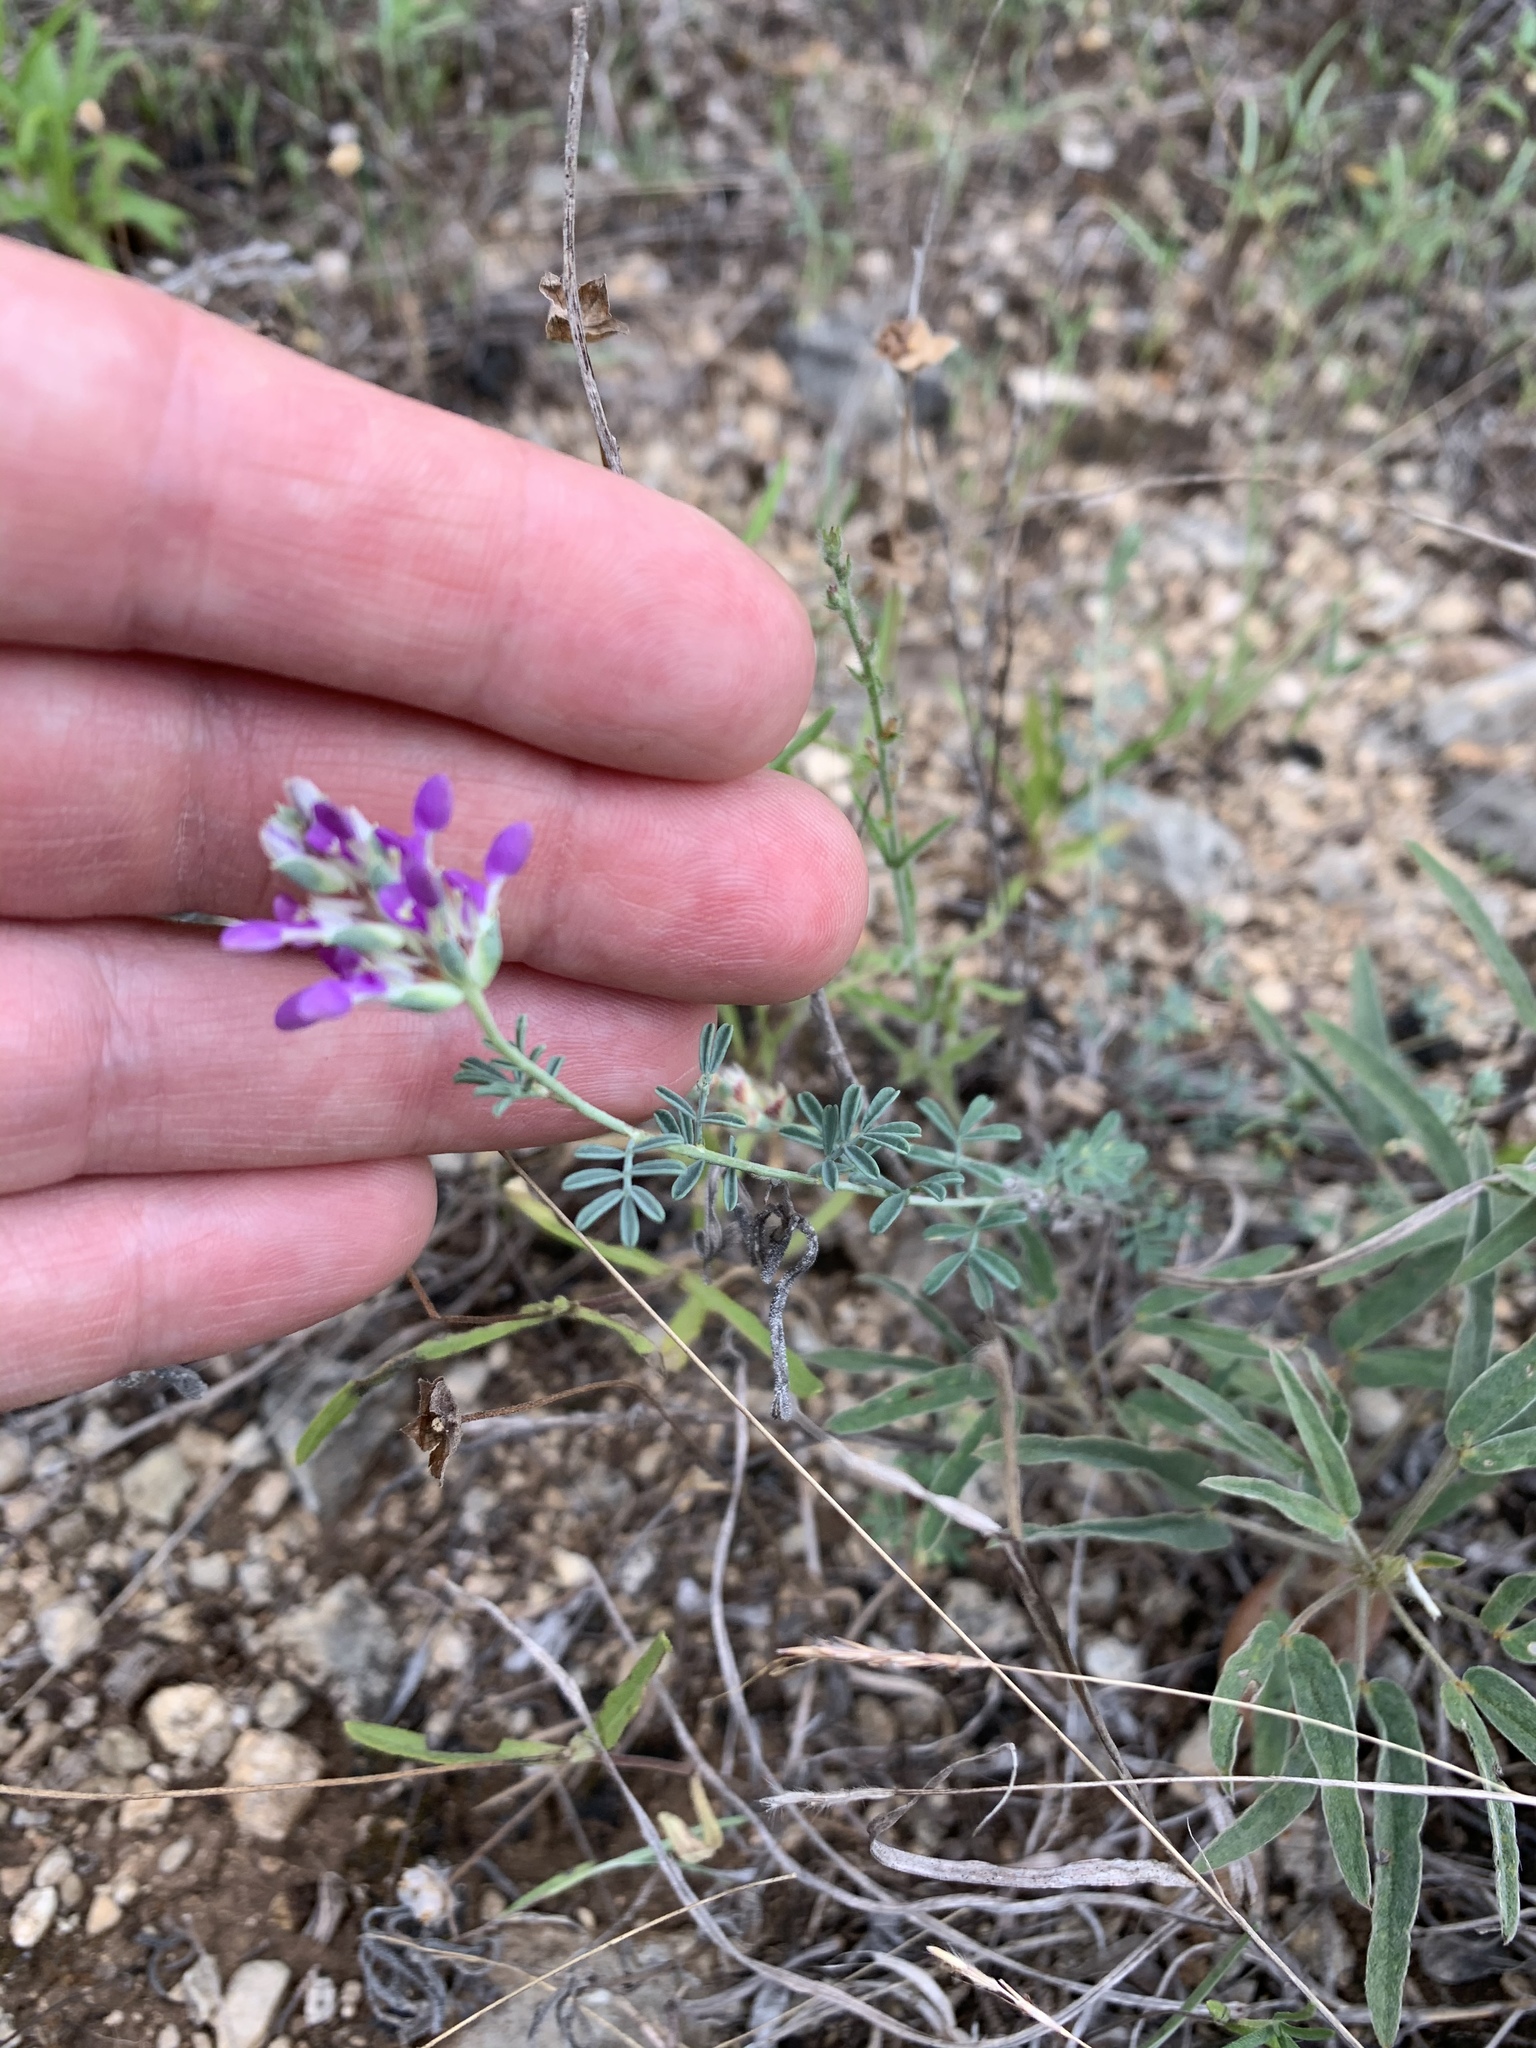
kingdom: Plantae
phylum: Tracheophyta
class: Magnoliopsida
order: Fabales
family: Fabaceae
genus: Dalea
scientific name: Dalea pogonathera
